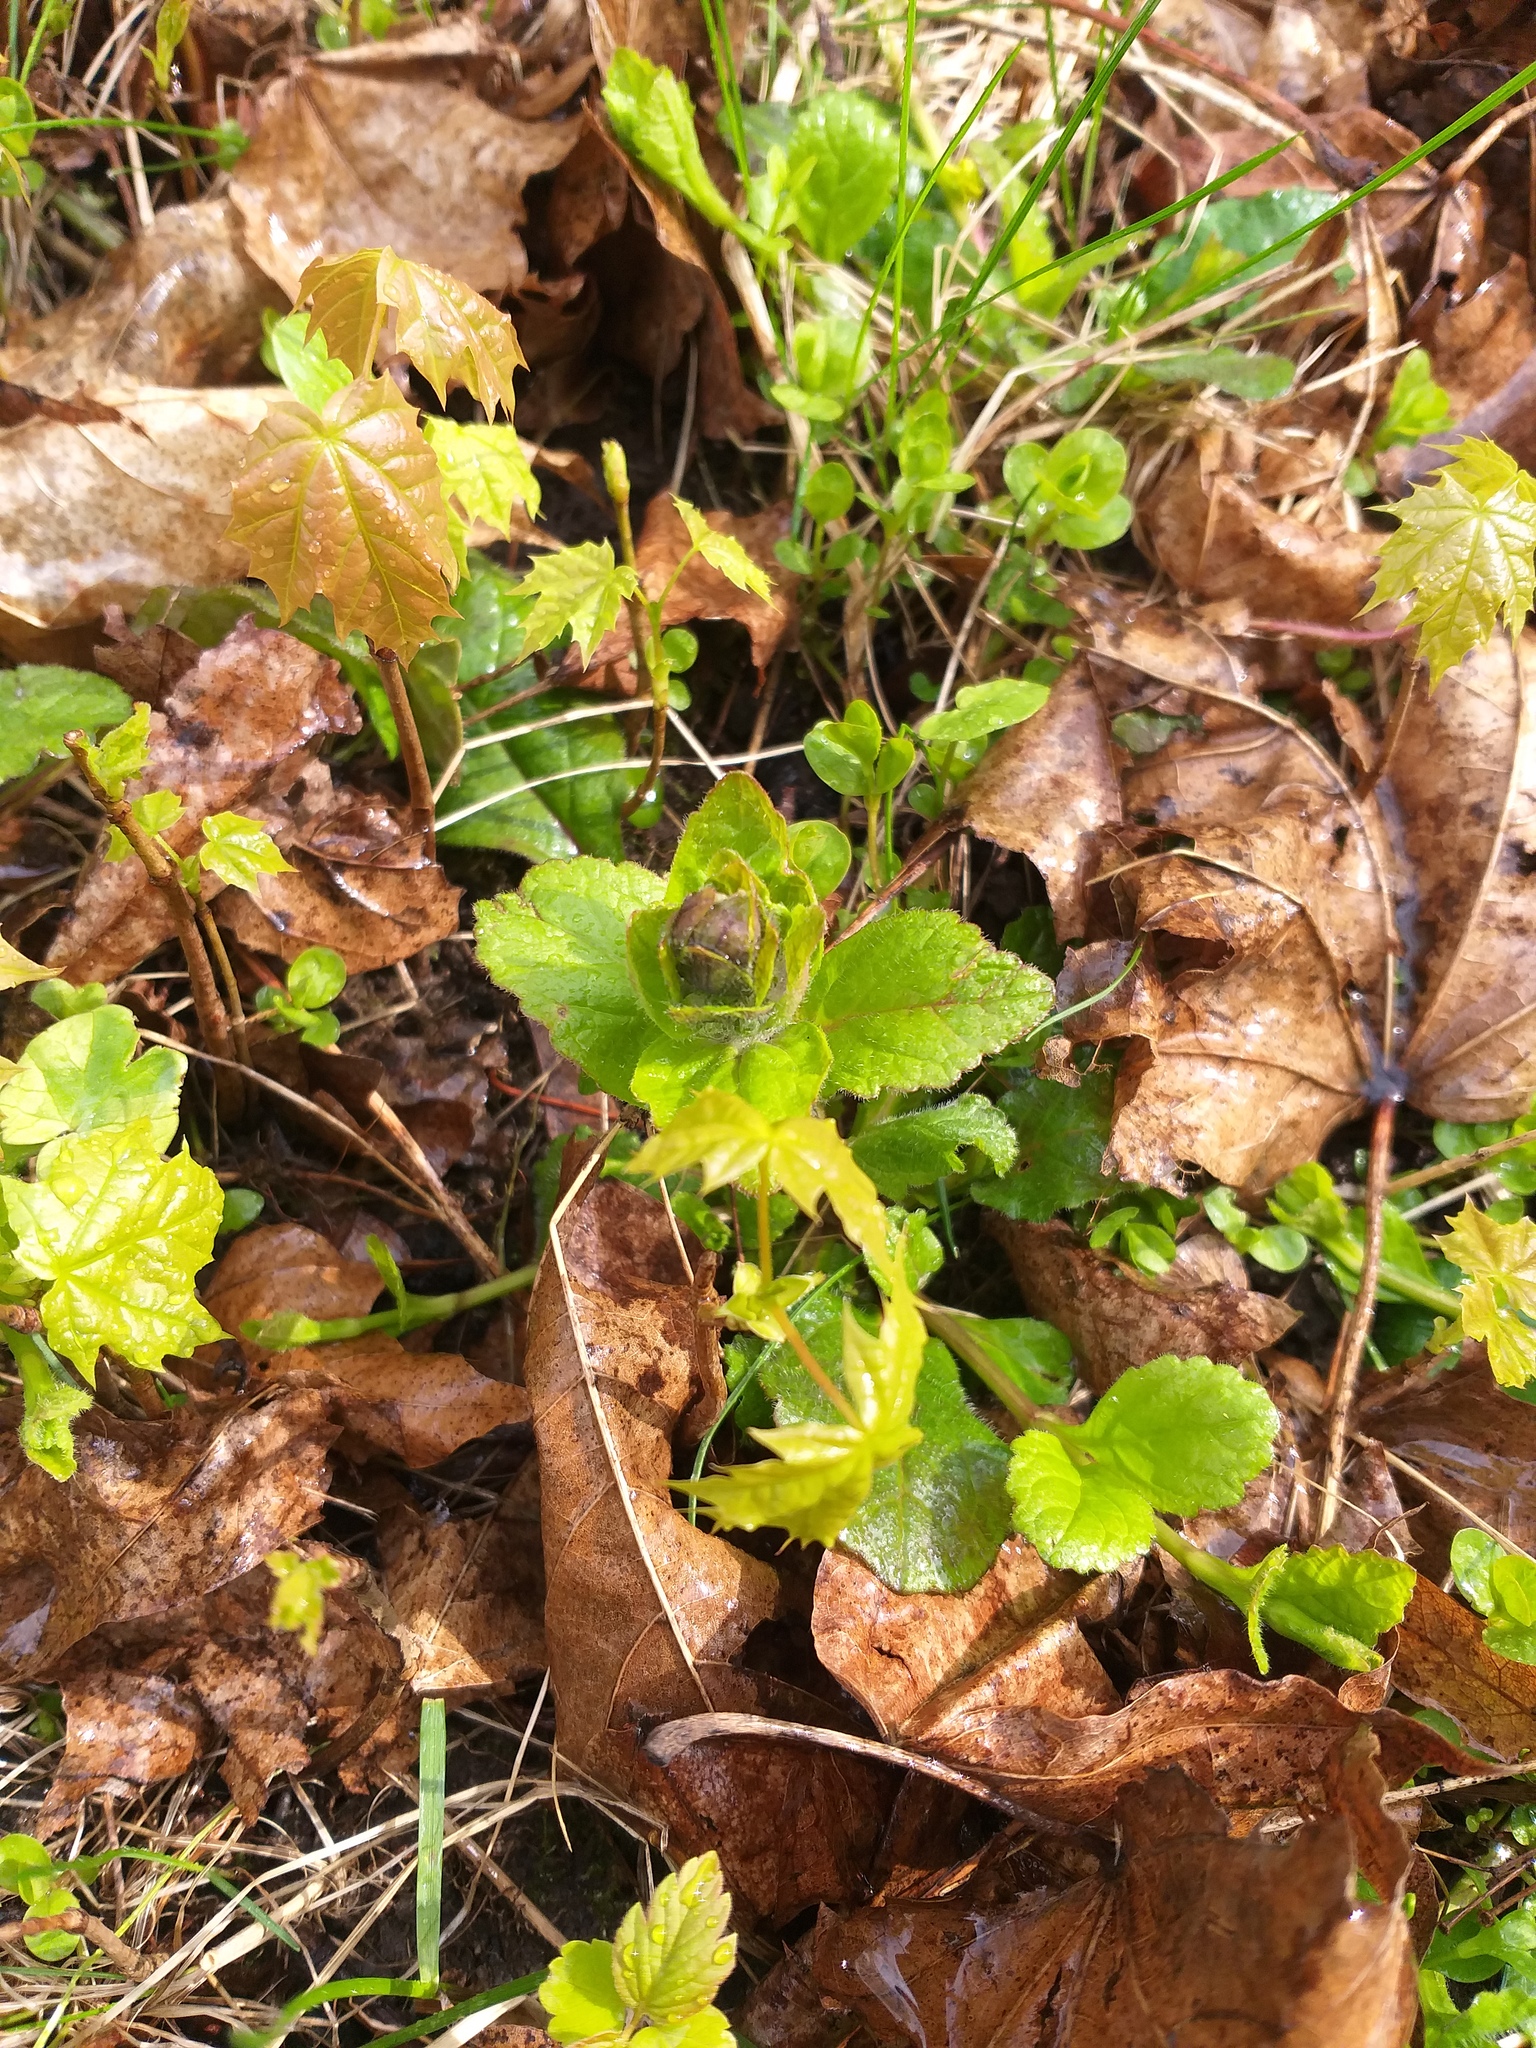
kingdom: Plantae
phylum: Tracheophyta
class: Magnoliopsida
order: Lamiales
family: Lamiaceae
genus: Ajuga
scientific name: Ajuga reptans
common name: Bugle
